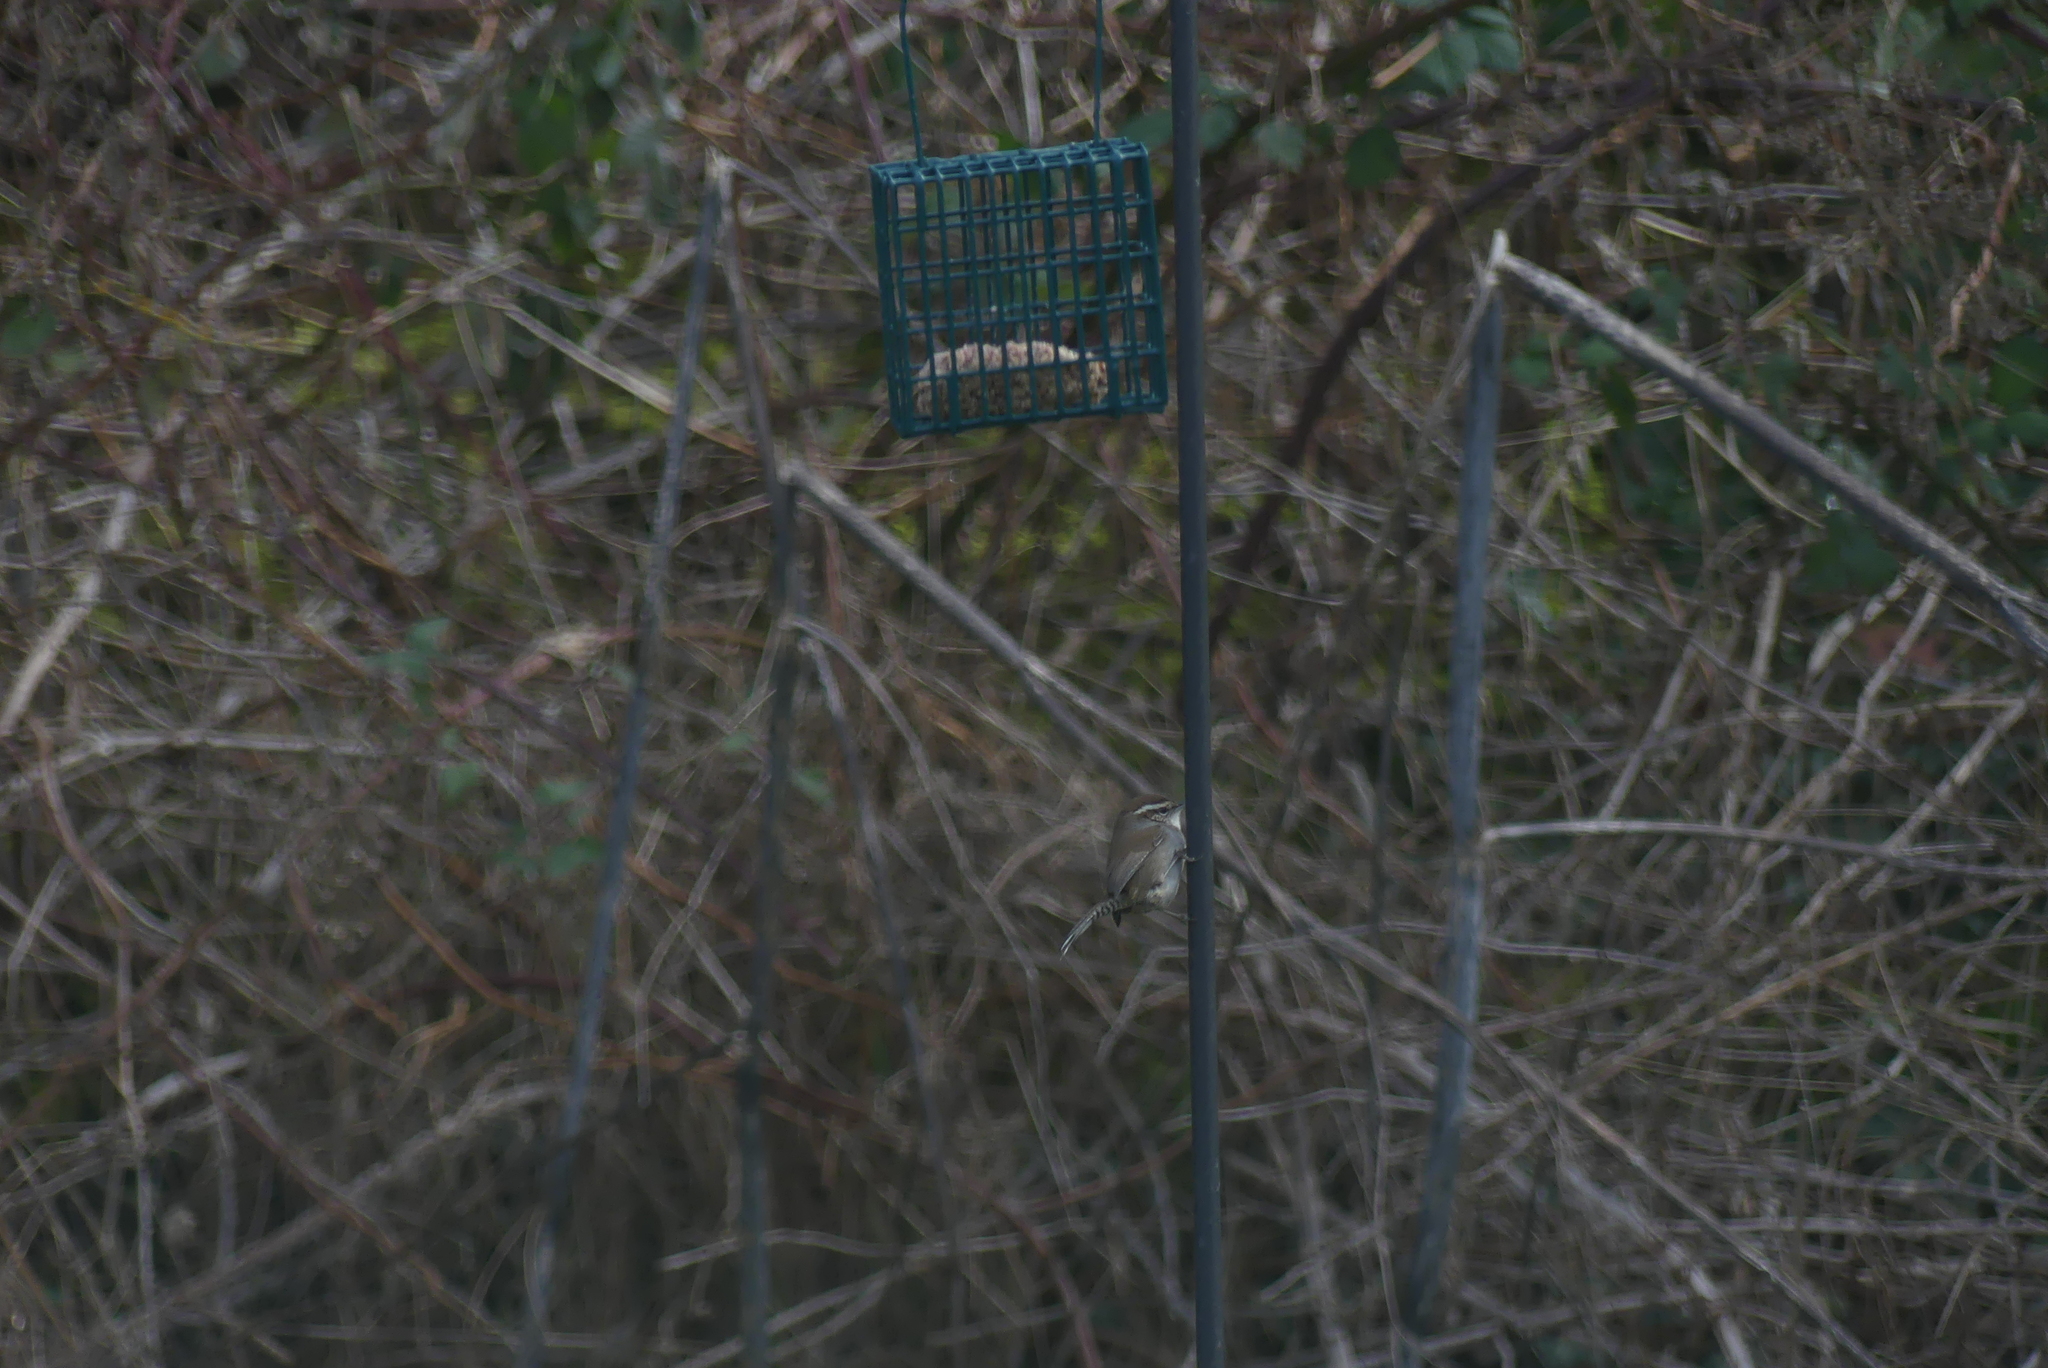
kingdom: Animalia
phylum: Chordata
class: Aves
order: Passeriformes
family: Troglodytidae
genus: Thryomanes
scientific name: Thryomanes bewickii
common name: Bewick's wren
